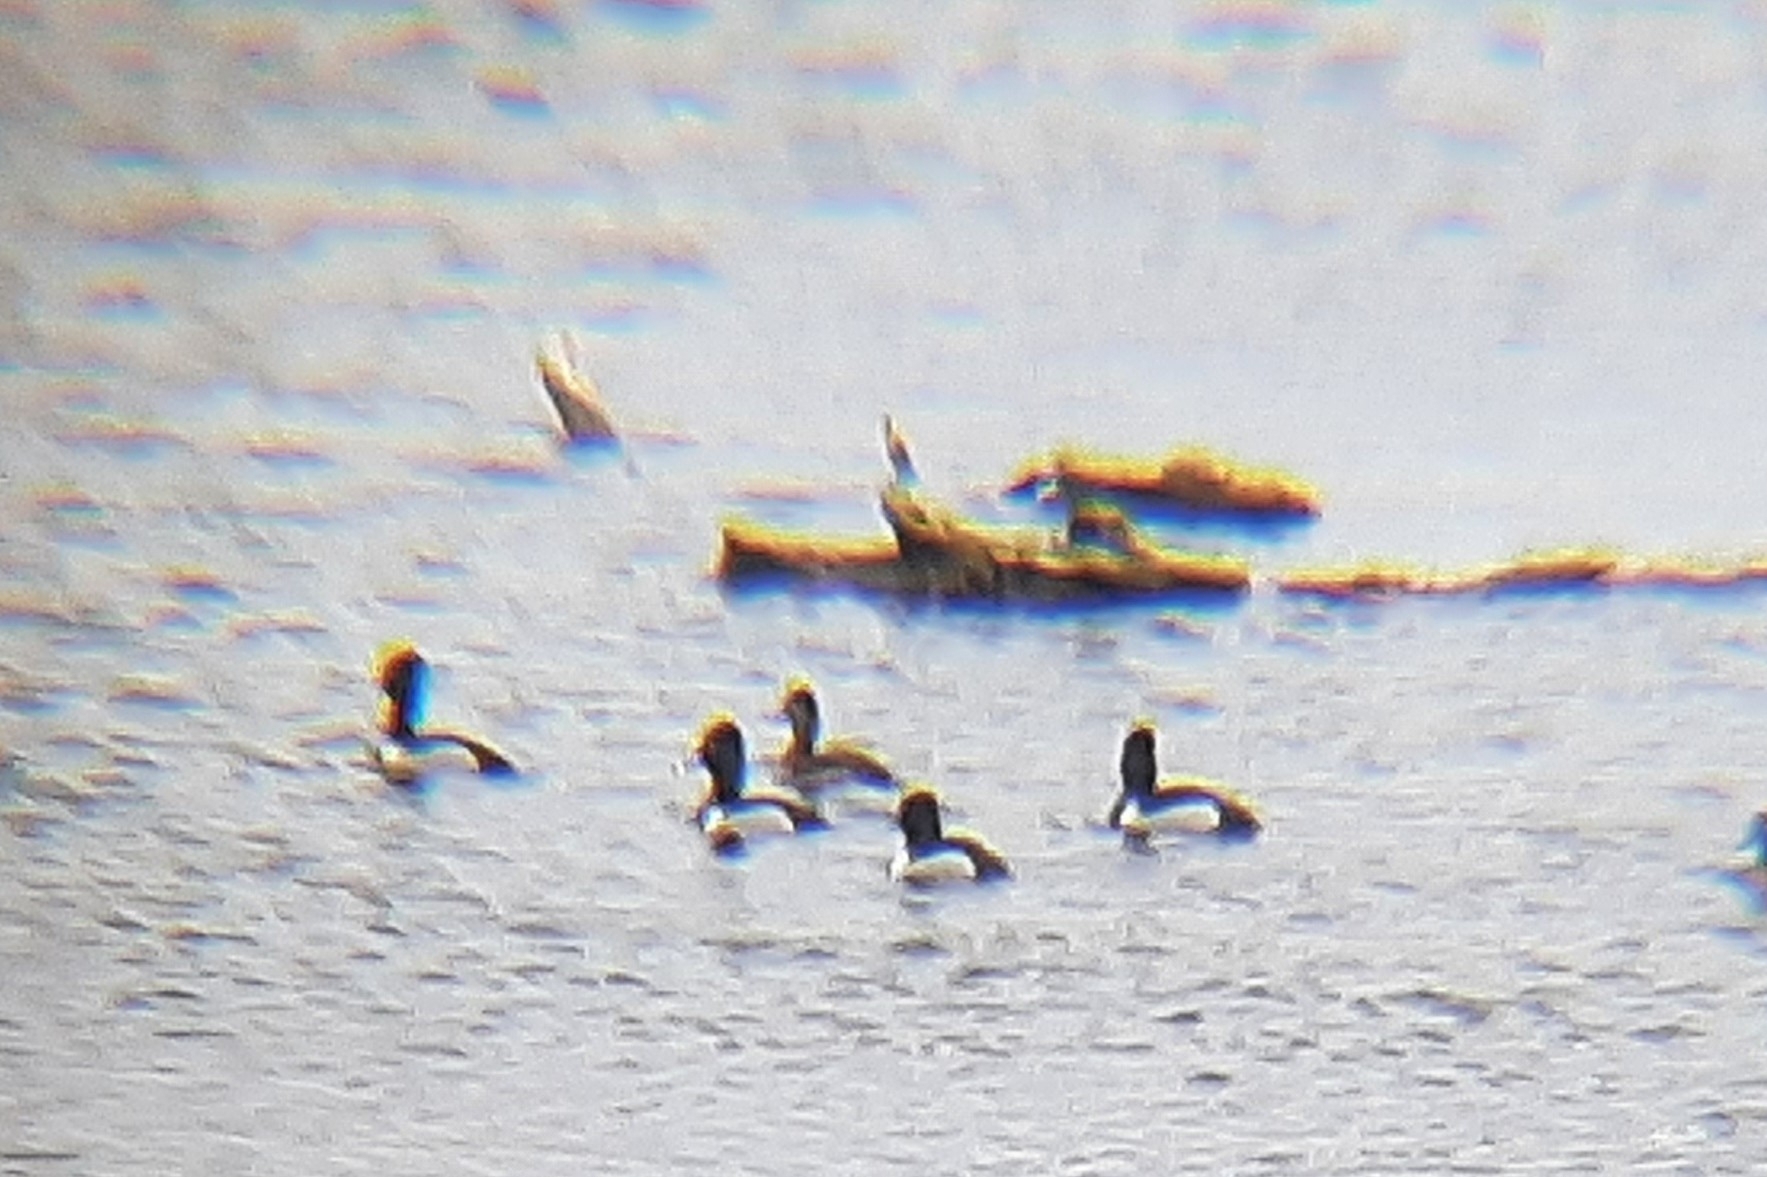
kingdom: Animalia
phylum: Chordata
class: Aves
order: Anseriformes
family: Anatidae
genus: Aythya
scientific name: Aythya collaris
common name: Ring-necked duck
